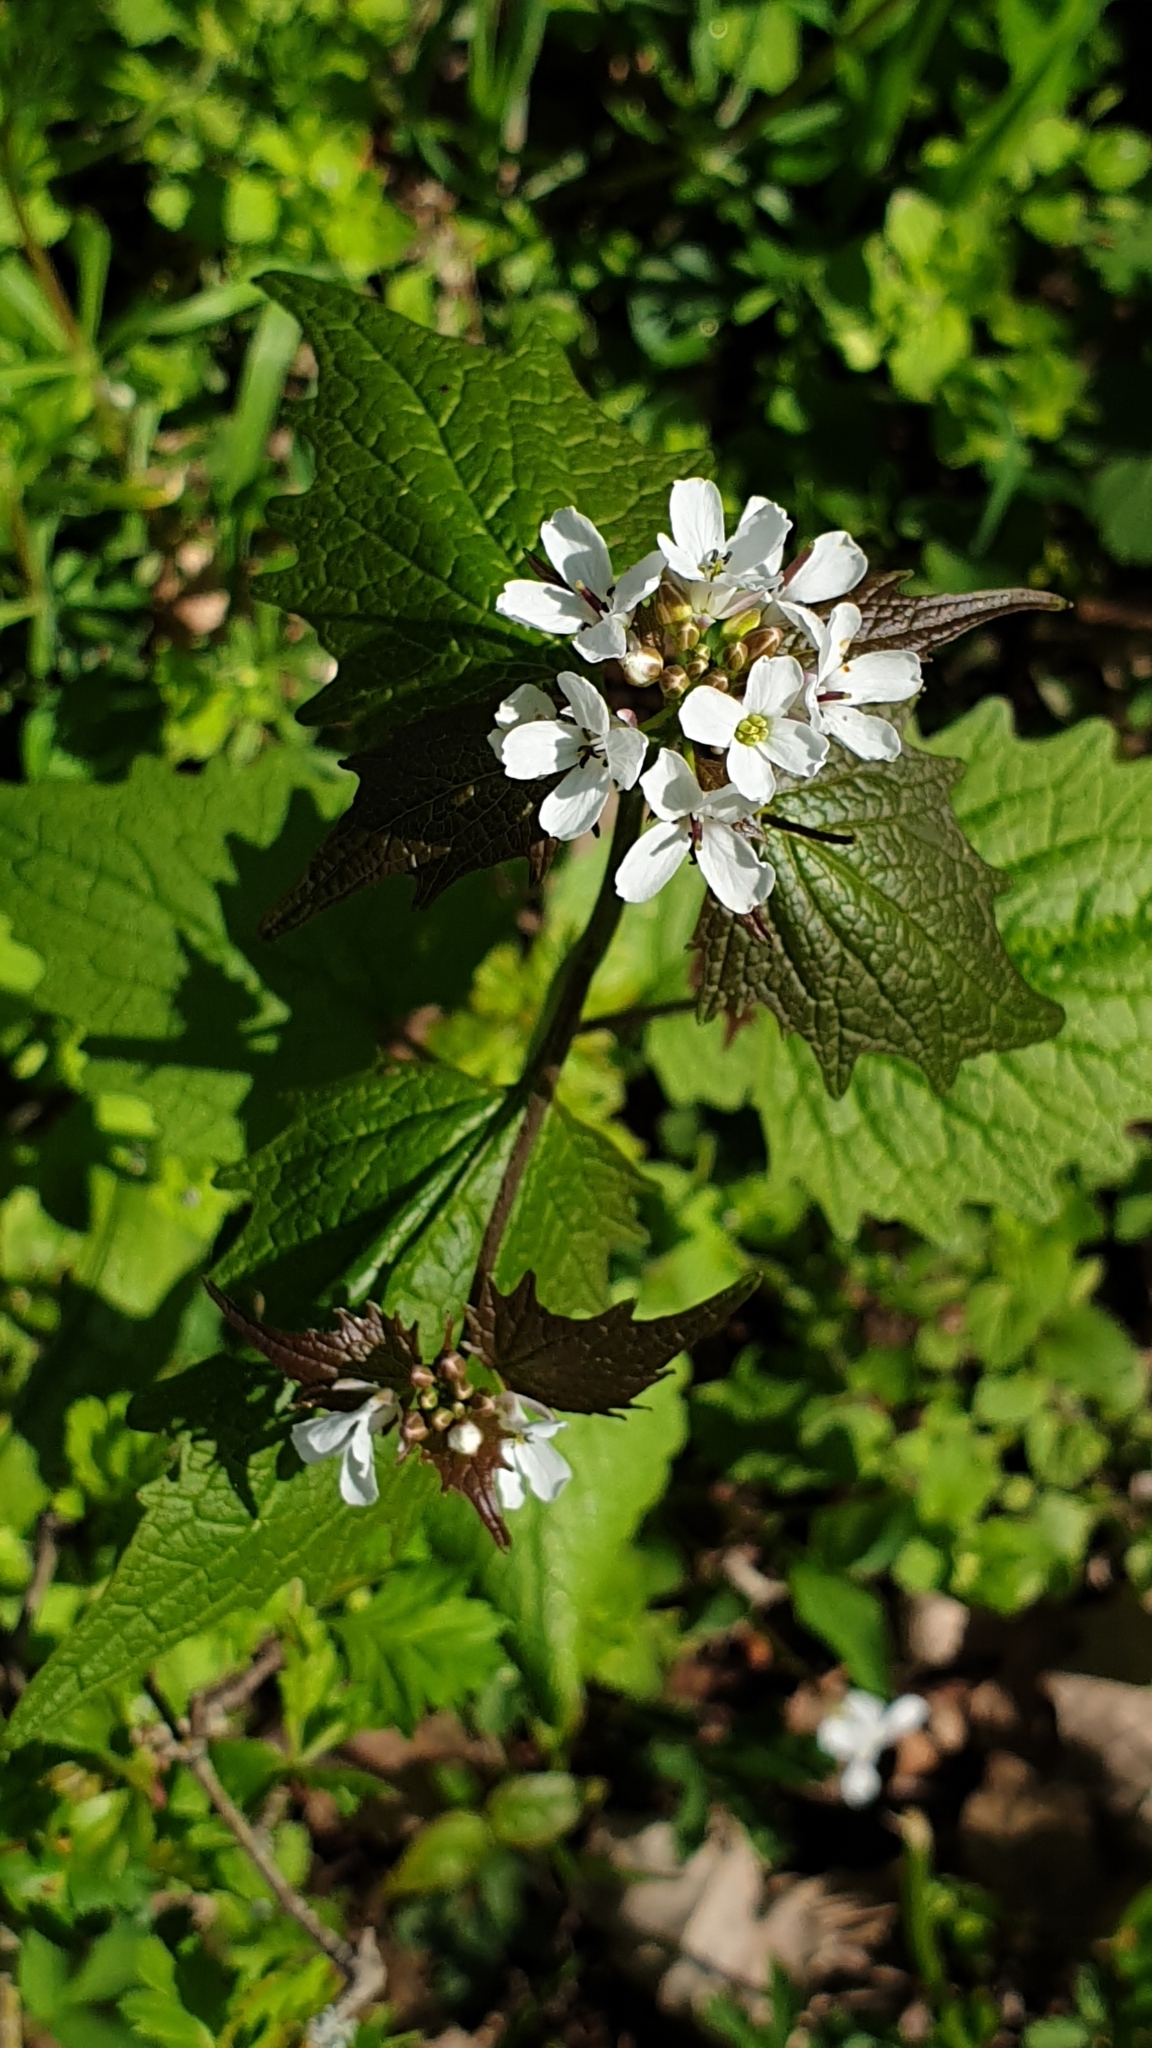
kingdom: Plantae
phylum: Tracheophyta
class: Magnoliopsida
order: Brassicales
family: Brassicaceae
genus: Alliaria
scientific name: Alliaria petiolata
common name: Garlic mustard
